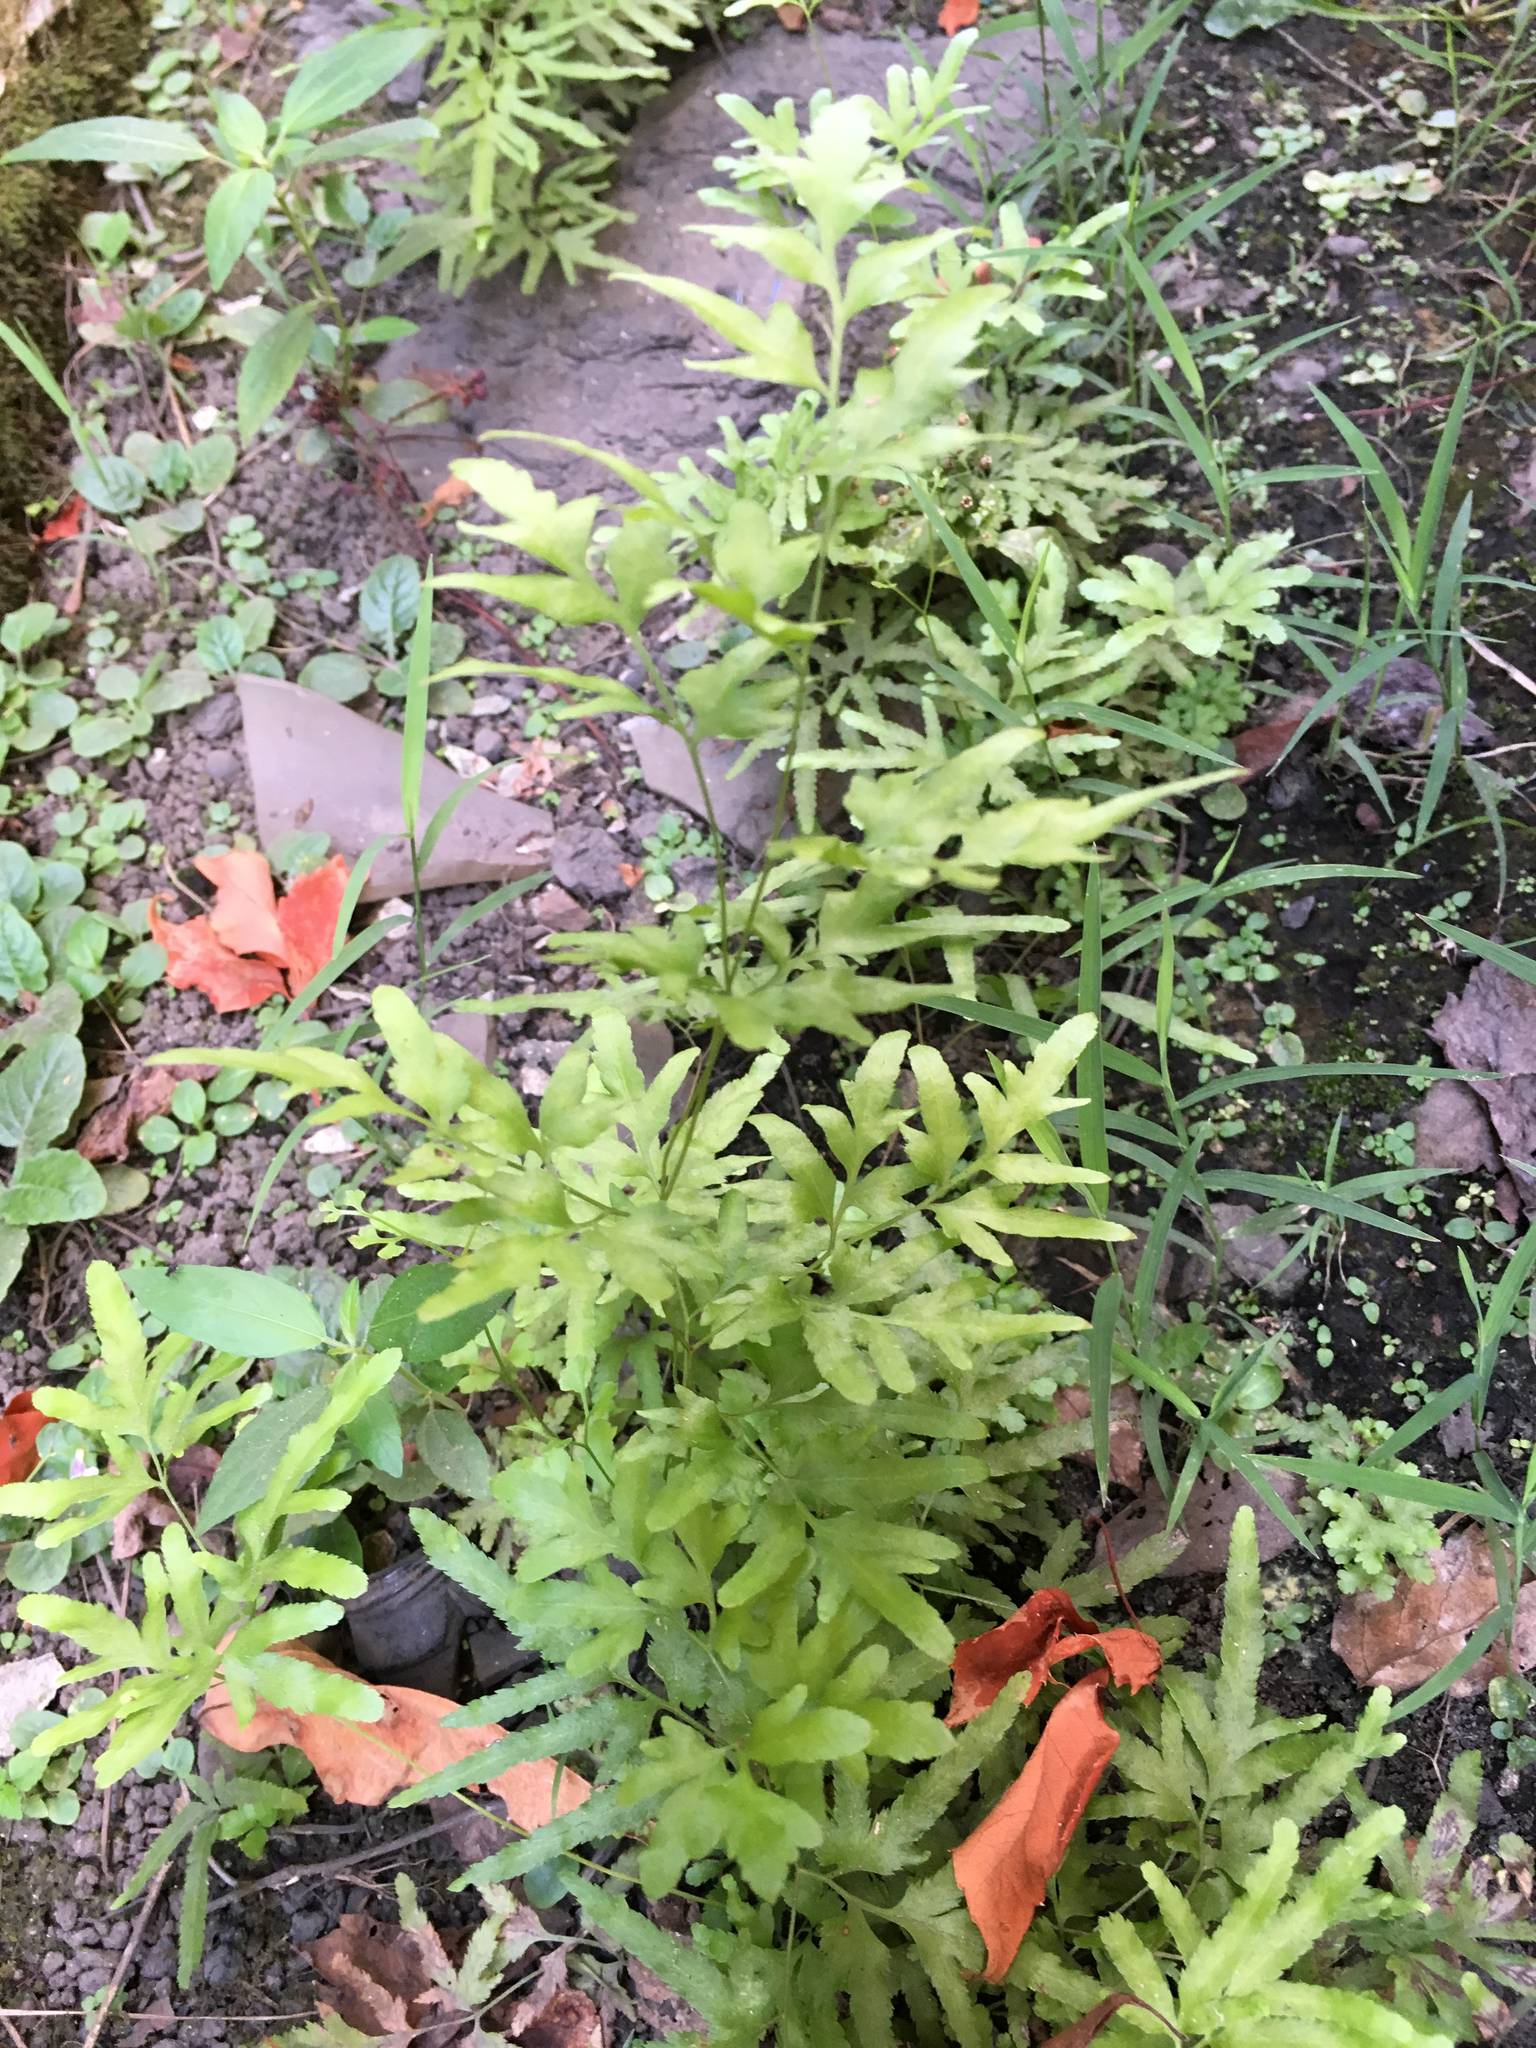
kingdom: Plantae
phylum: Tracheophyta
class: Polypodiopsida
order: Schizaeales
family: Lygodiaceae
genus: Lygodium
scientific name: Lygodium japonicum
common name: Japanese climbing fern
